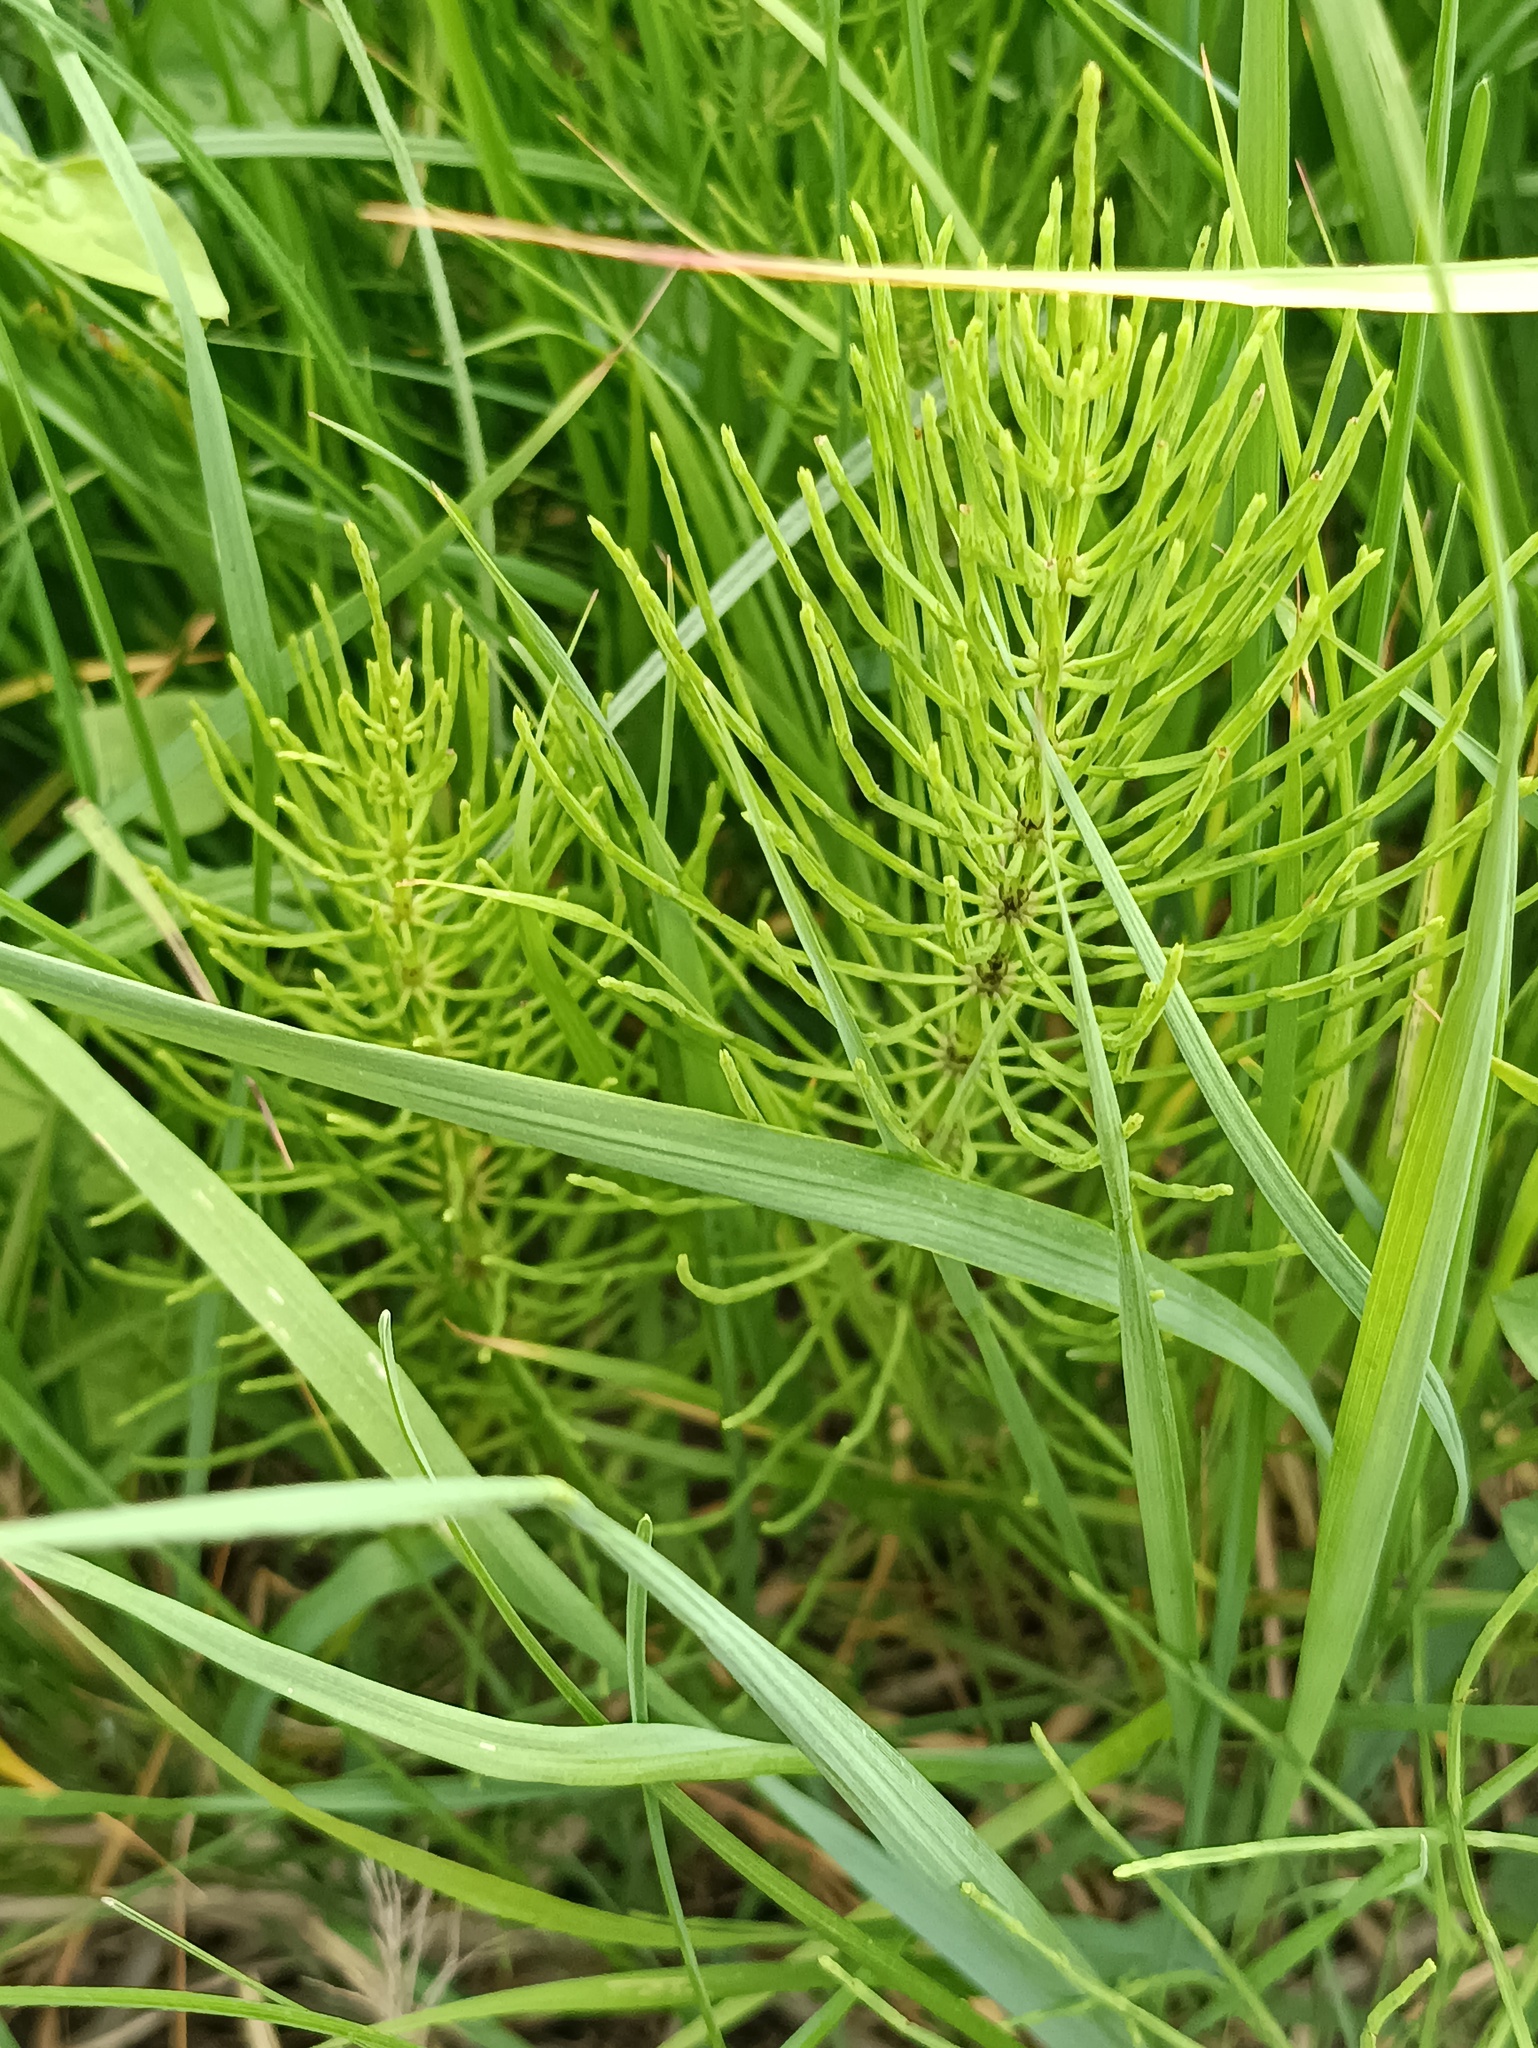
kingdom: Plantae
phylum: Tracheophyta
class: Polypodiopsida
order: Equisetales
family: Equisetaceae
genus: Equisetum
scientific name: Equisetum arvense
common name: Field horsetail
